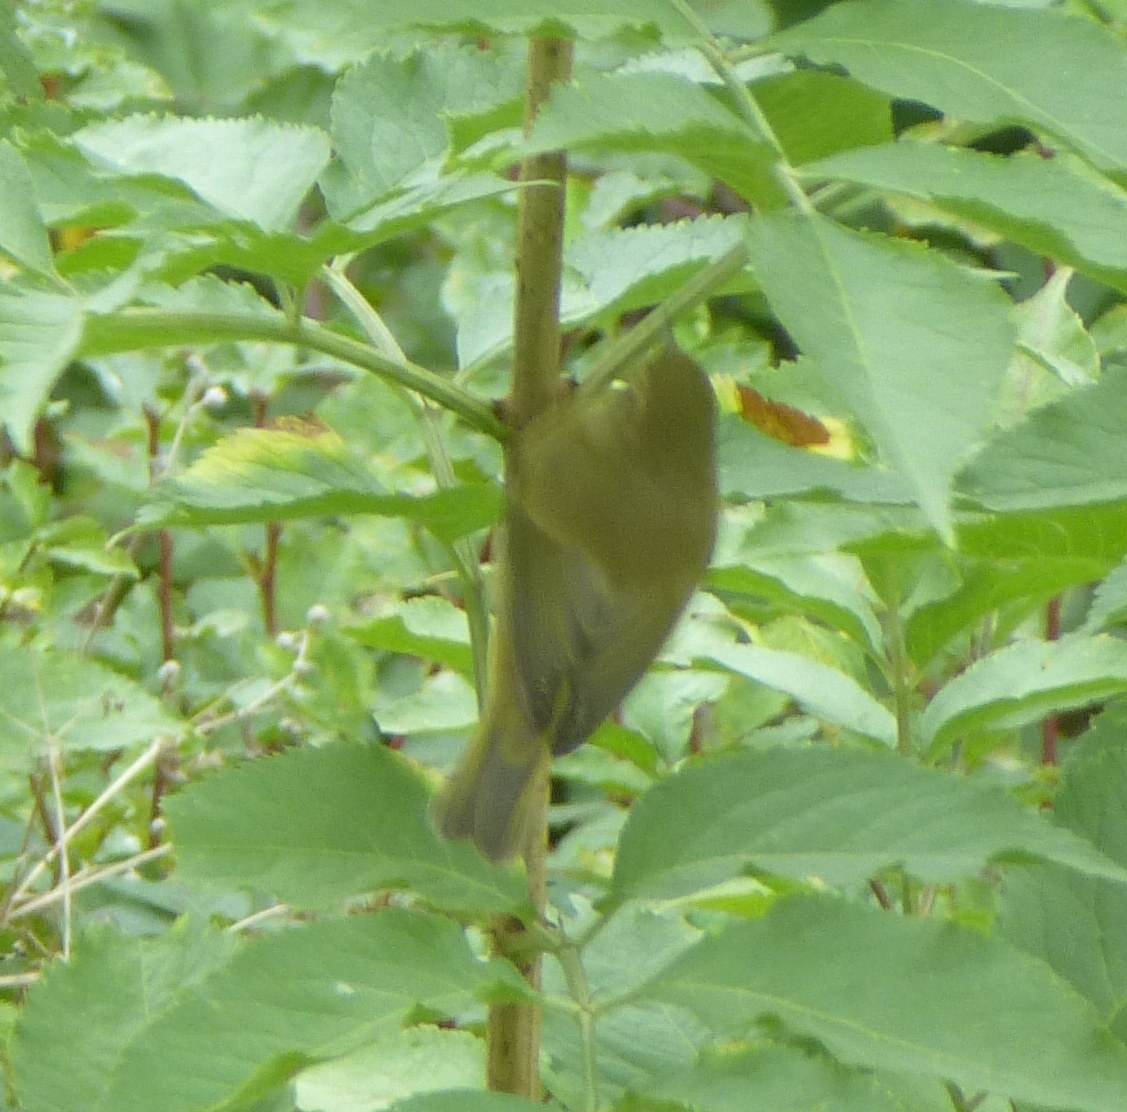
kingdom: Animalia
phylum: Chordata
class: Aves
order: Passeriformes
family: Phylloscopidae
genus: Phylloscopus
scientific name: Phylloscopus collybita
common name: Common chiffchaff
